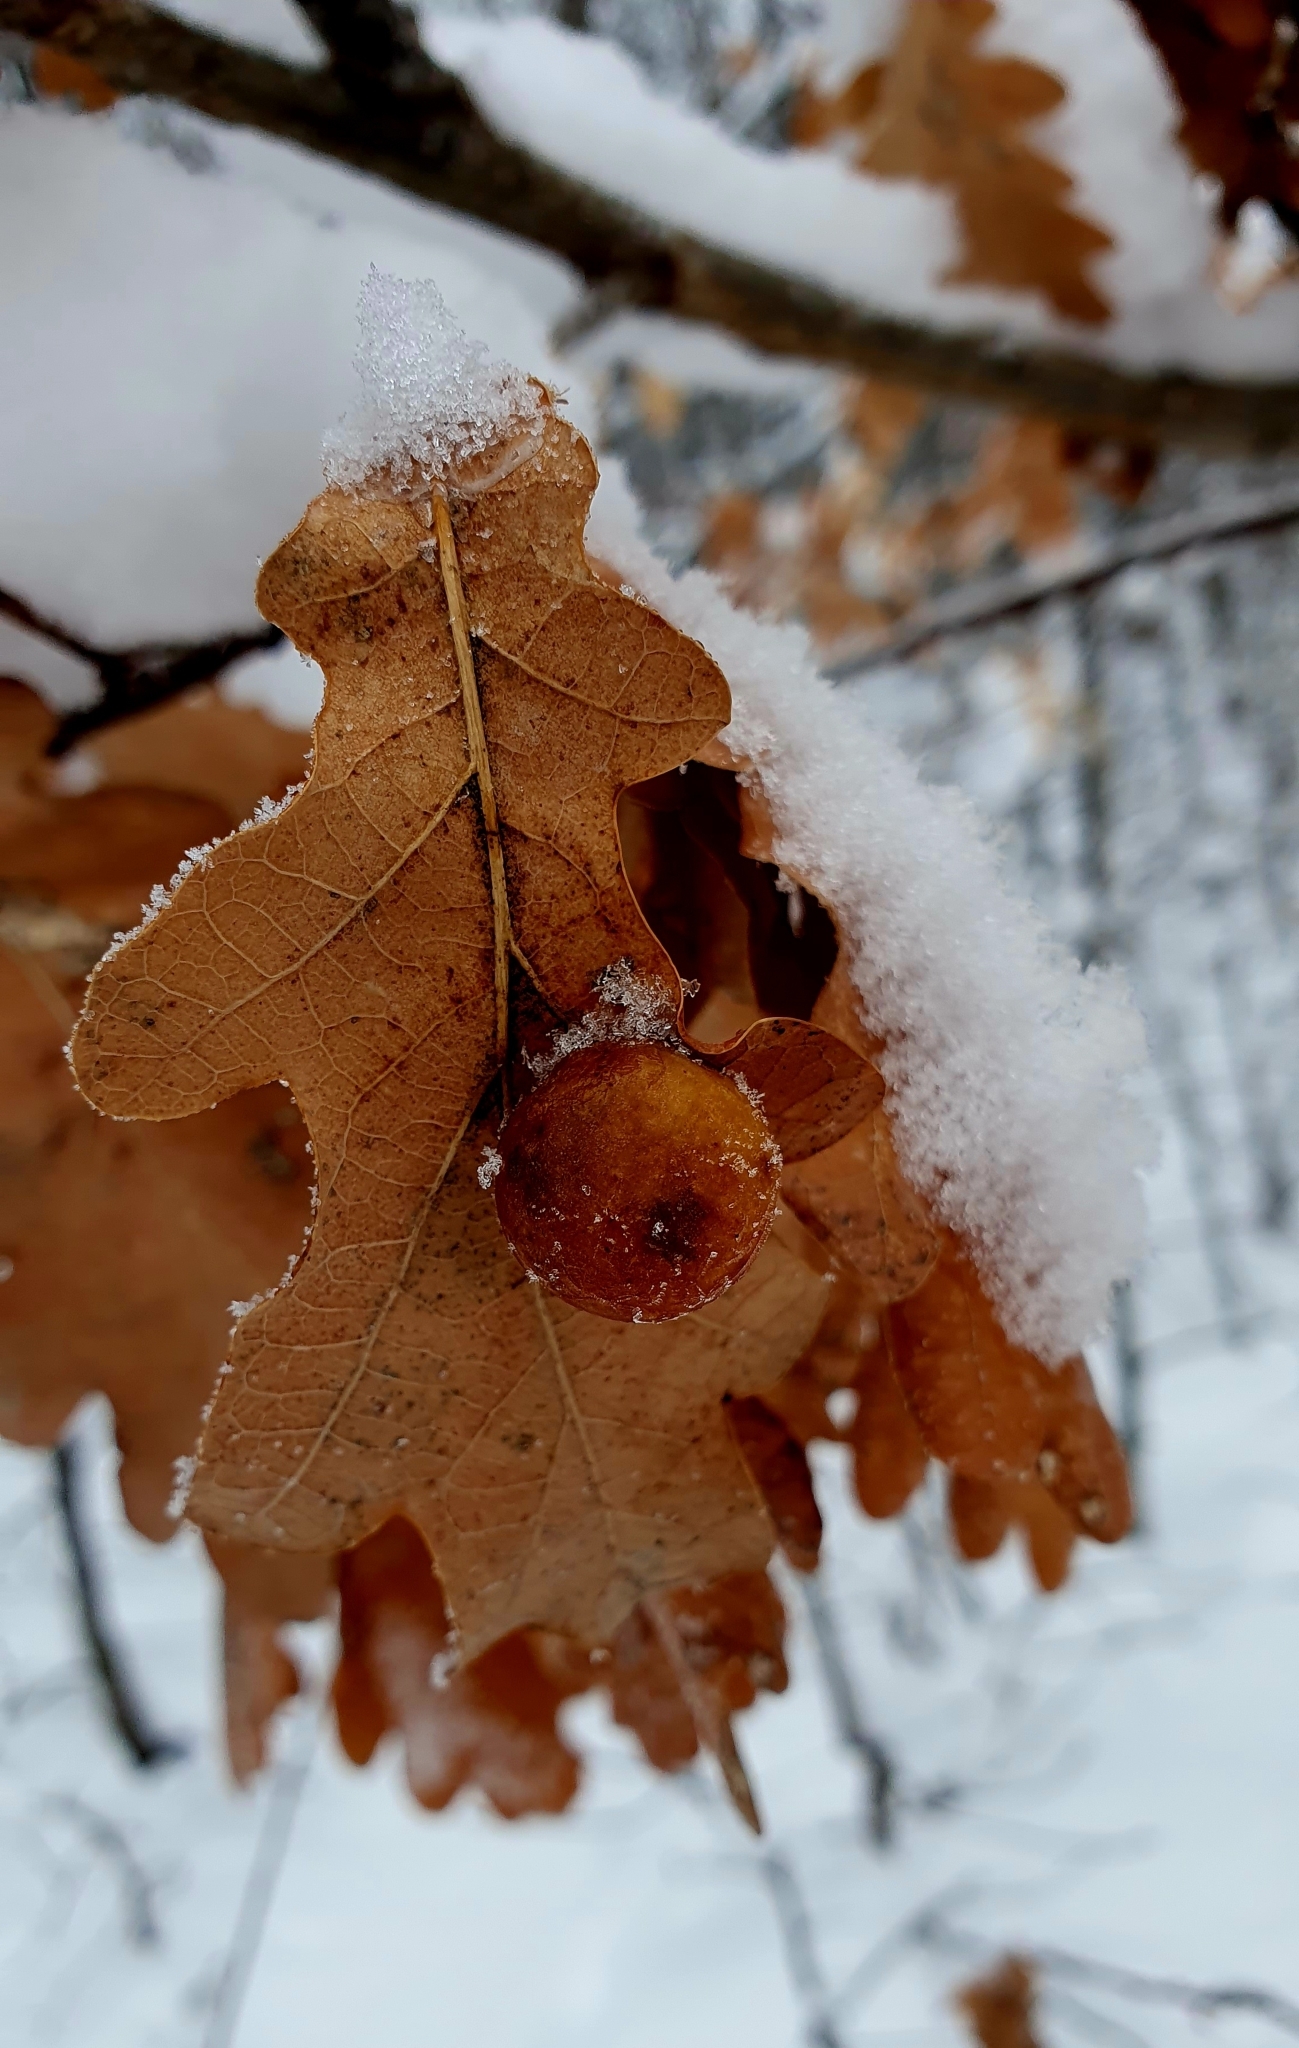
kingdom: Animalia
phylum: Arthropoda
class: Insecta
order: Hymenoptera
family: Cynipidae
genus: Cynips
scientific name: Cynips quercusfolii
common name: Cherry gall
